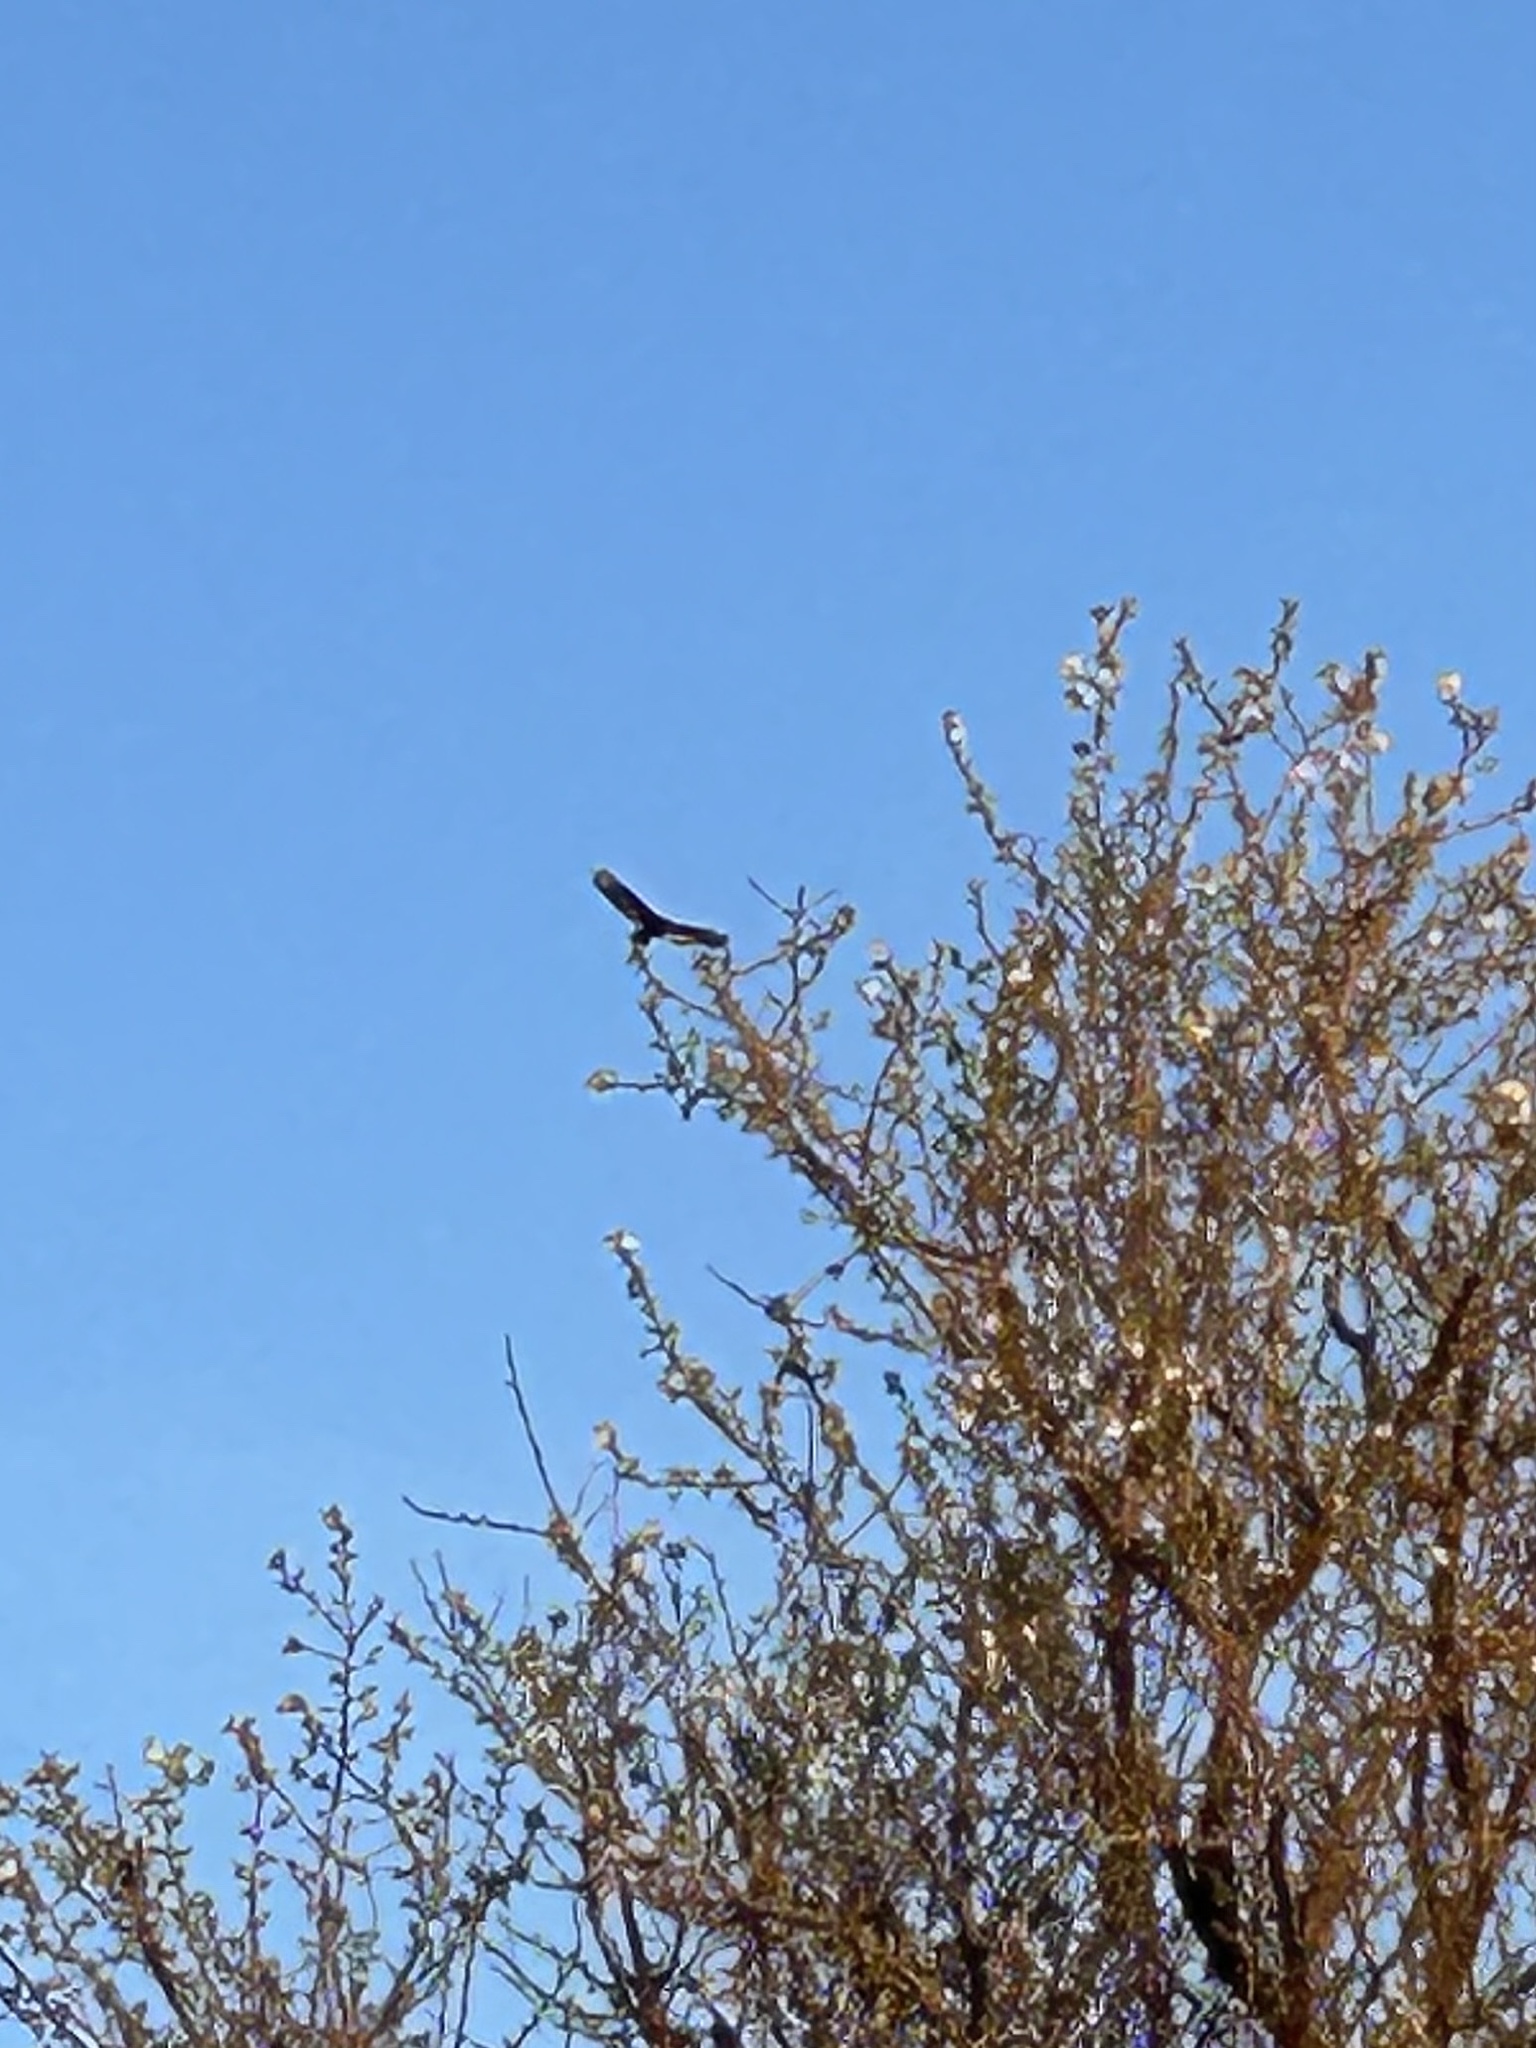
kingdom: Animalia
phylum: Chordata
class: Aves
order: Accipitriformes
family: Cathartidae
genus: Cathartes
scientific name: Cathartes aura
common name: Turkey vulture
